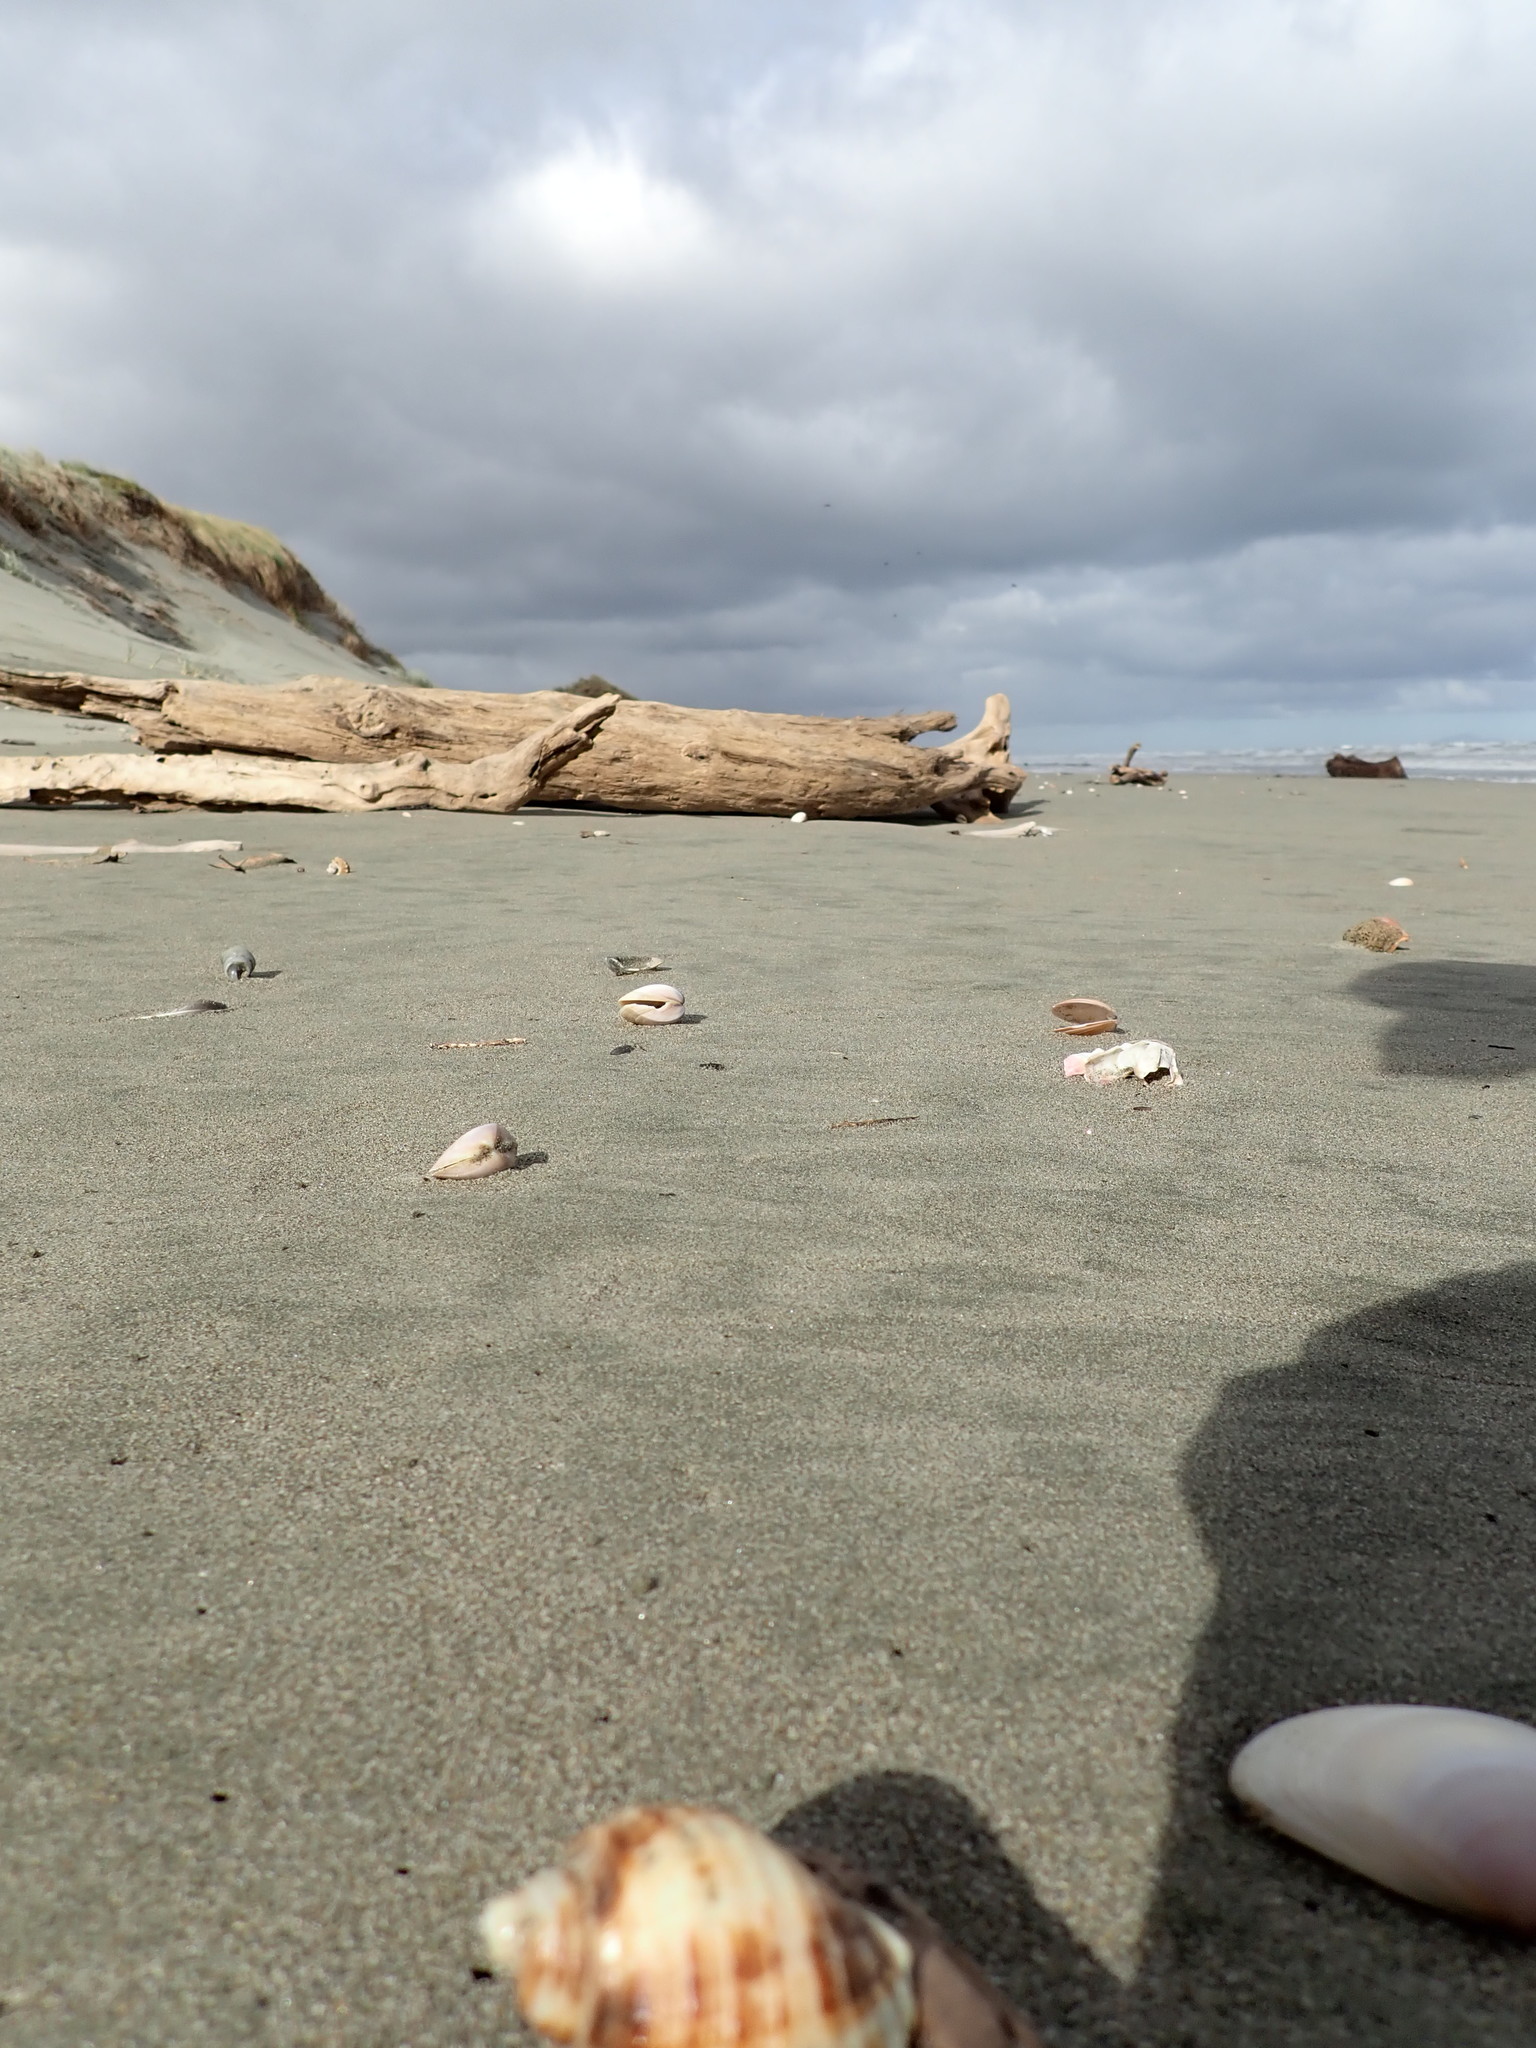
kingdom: Animalia
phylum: Mollusca
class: Gastropoda
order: Neogastropoda
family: Muricidae
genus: Dicathais
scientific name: Dicathais orbita
